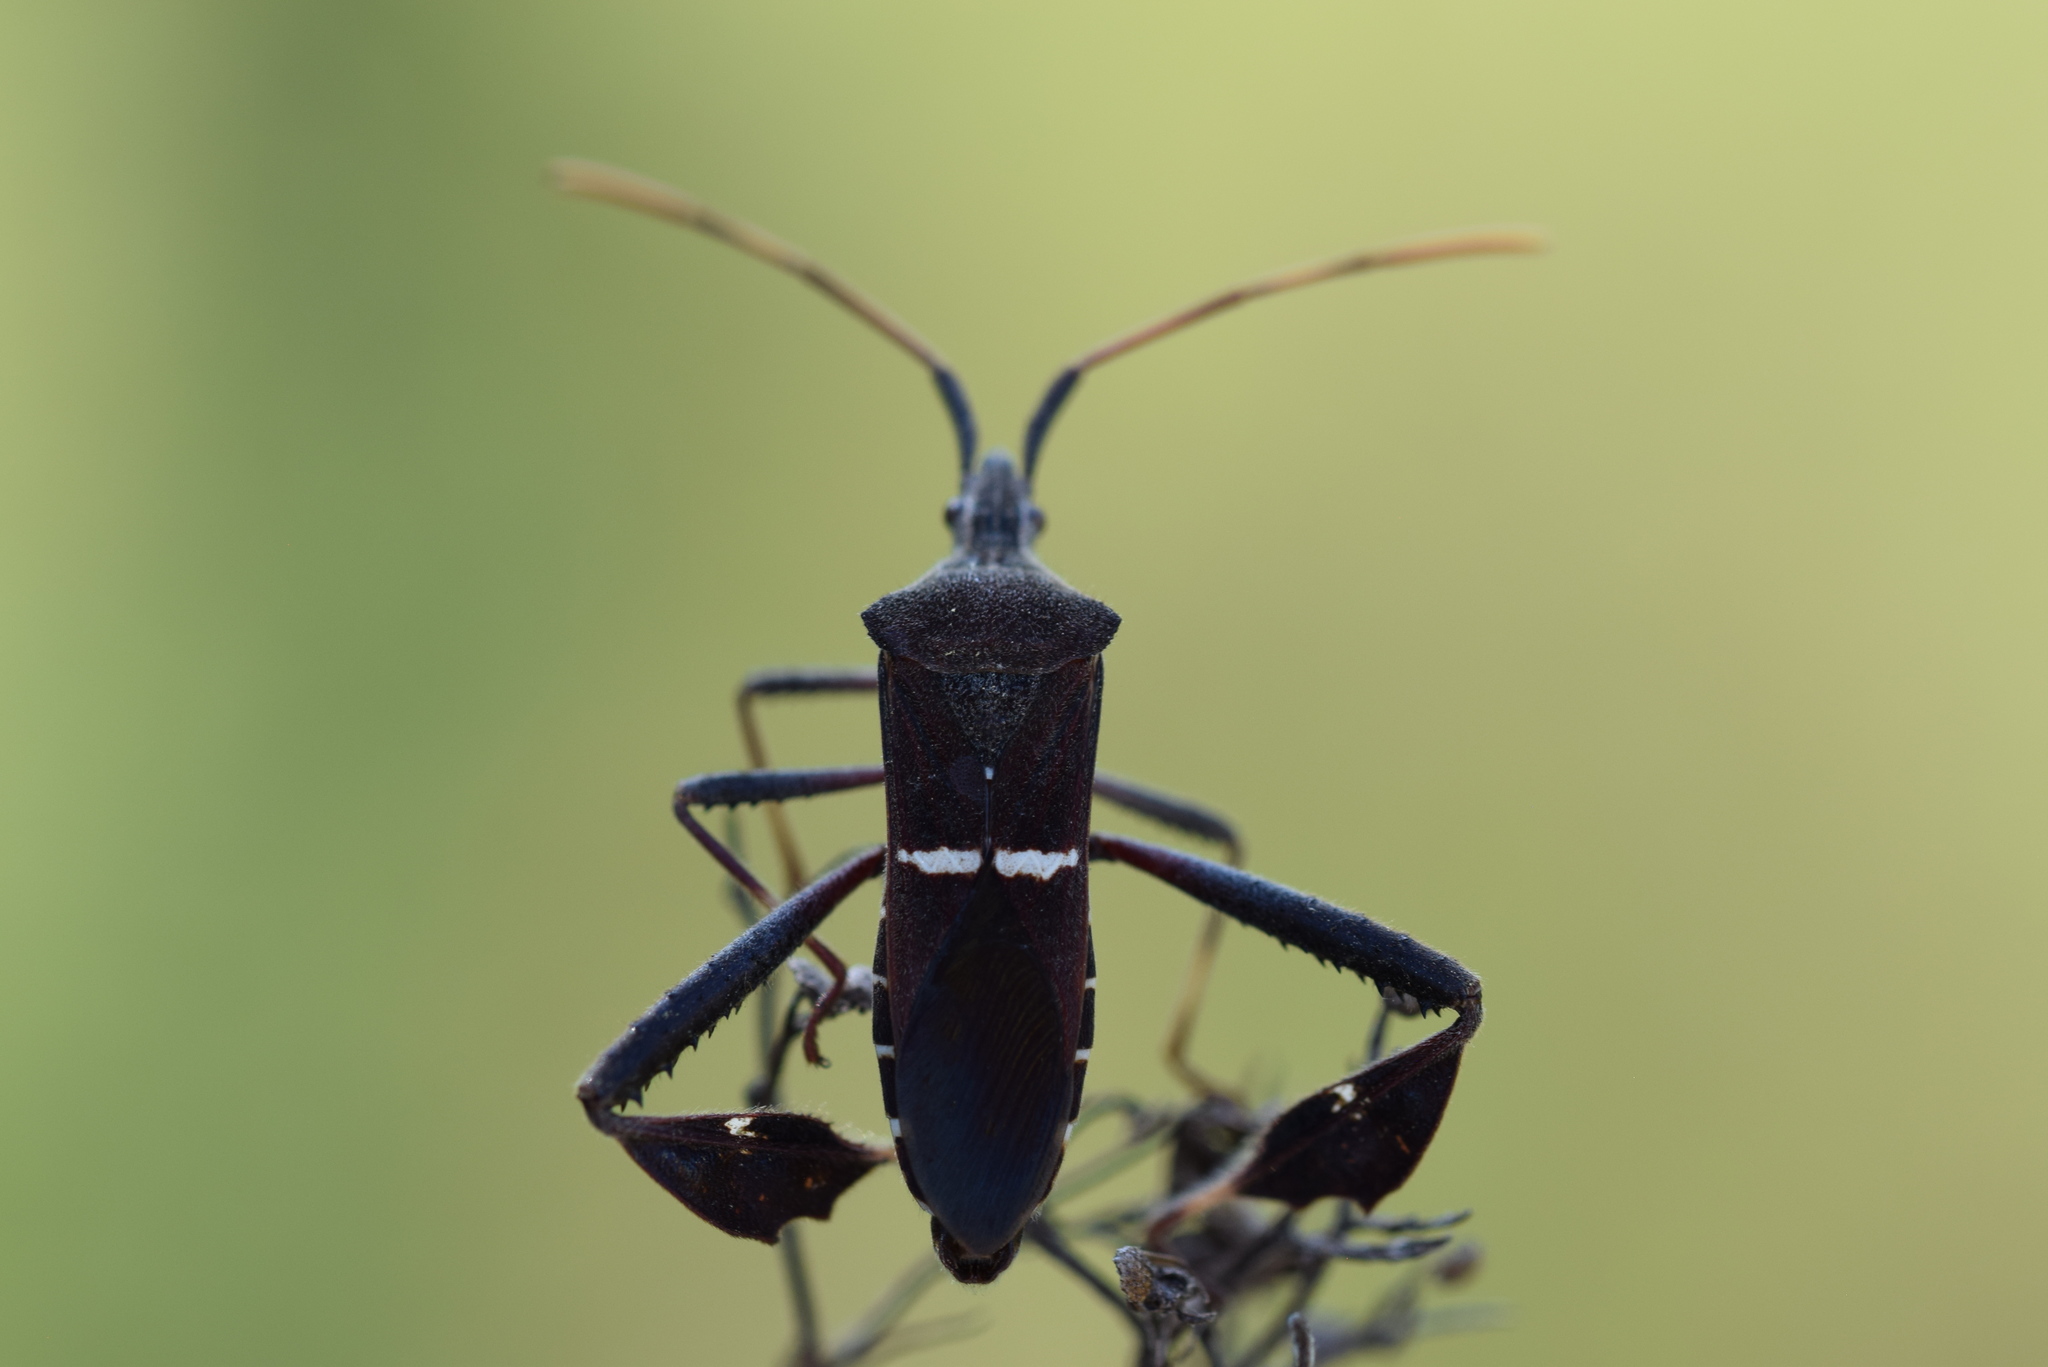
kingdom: Animalia
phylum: Arthropoda
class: Insecta
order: Hemiptera
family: Coreidae
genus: Leptoglossus
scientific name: Leptoglossus phyllopus
